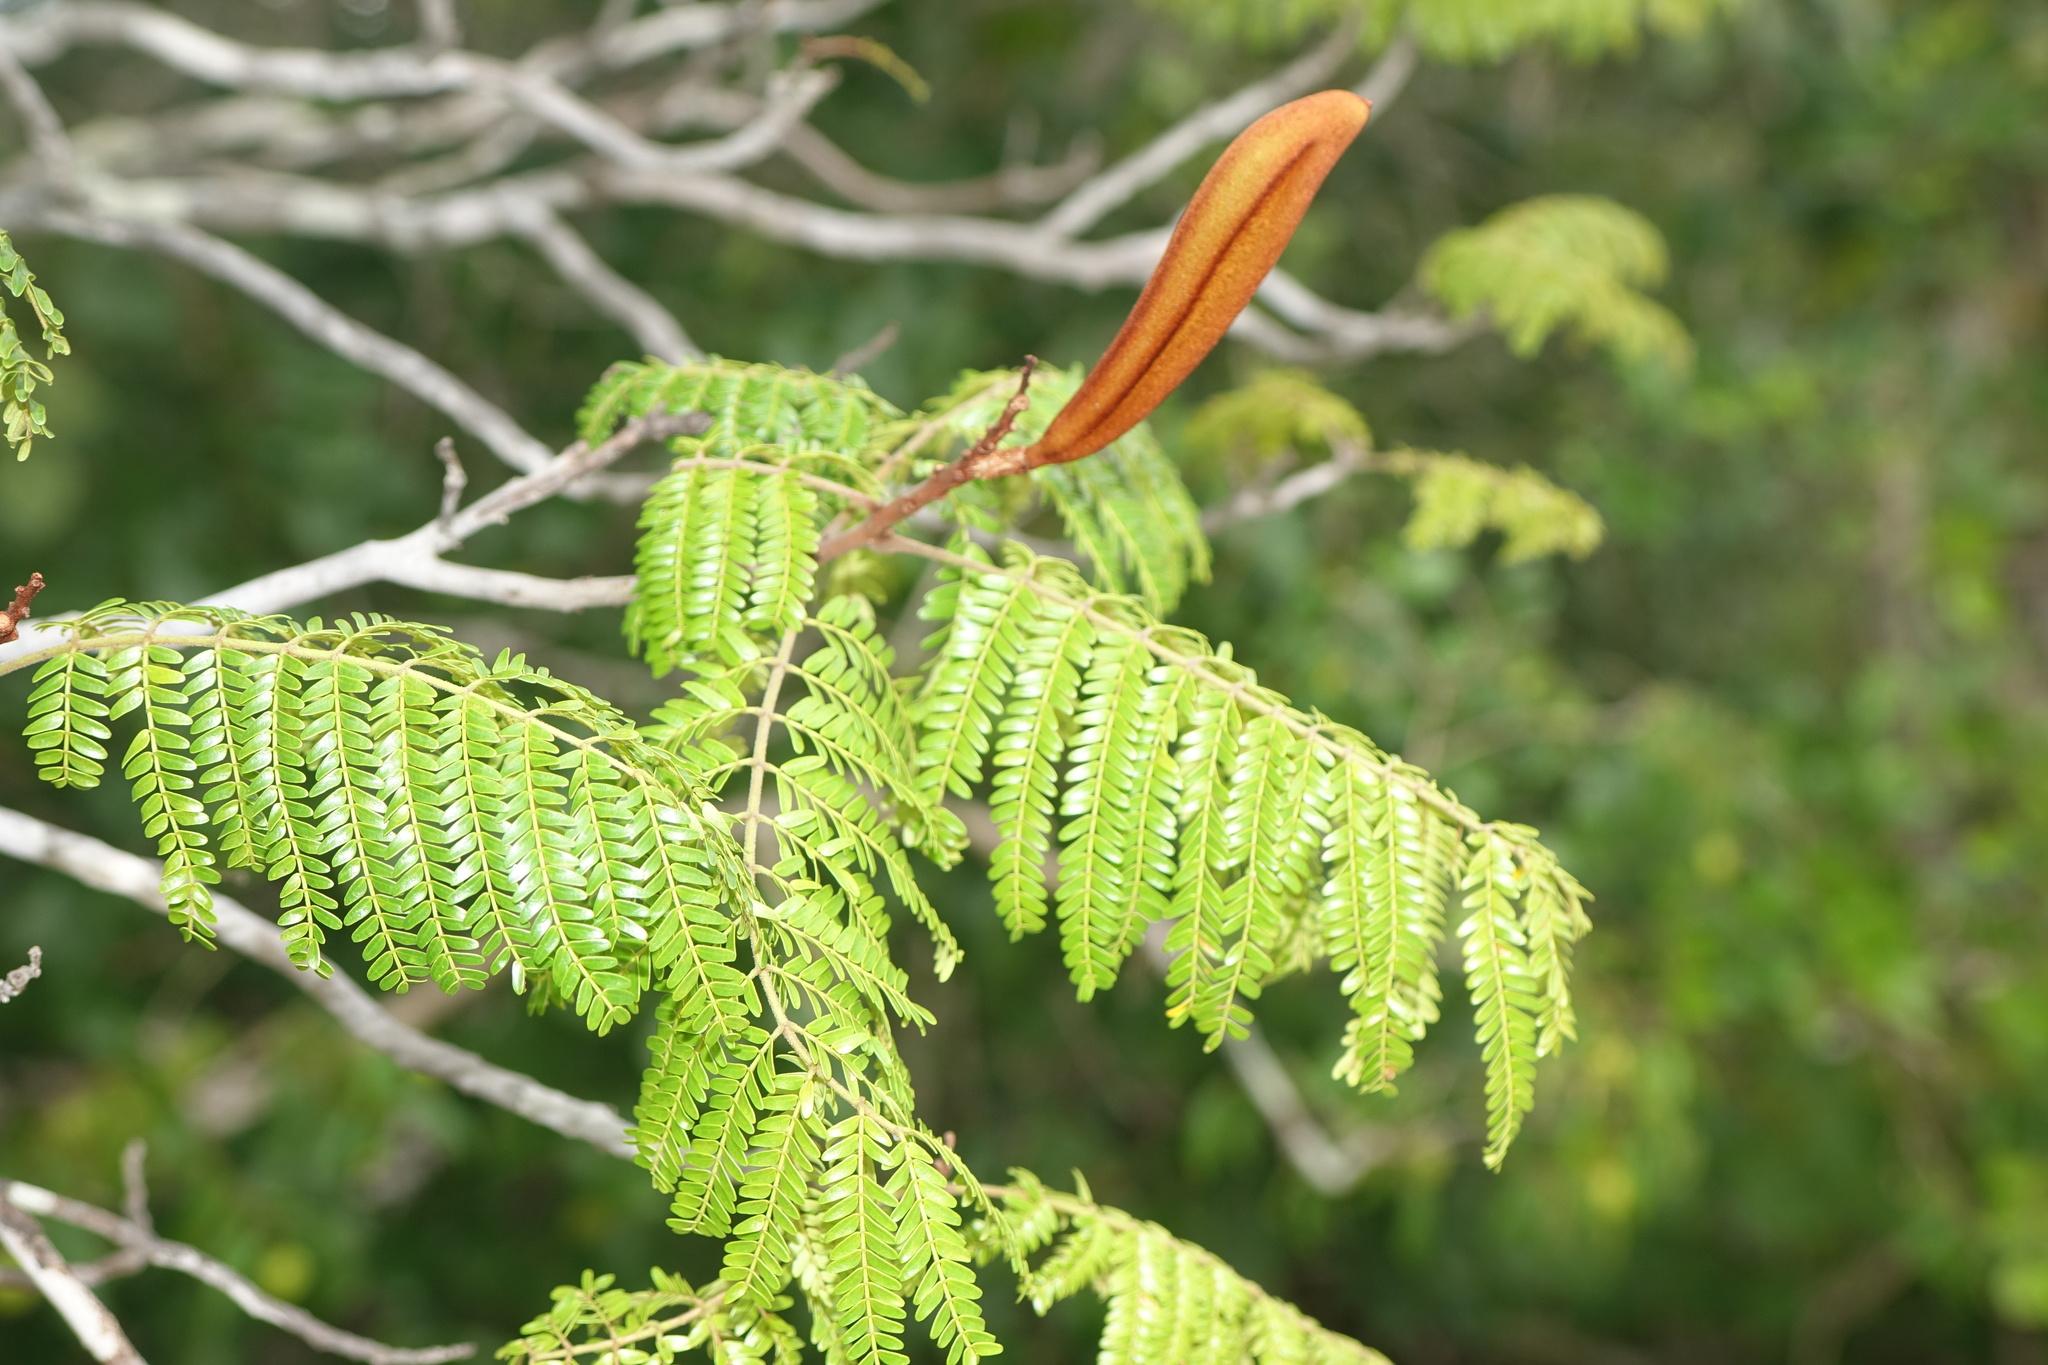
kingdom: Plantae
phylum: Tracheophyta
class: Magnoliopsida
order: Fabales
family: Fabaceae
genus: Bussea
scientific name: Bussea perrieri
